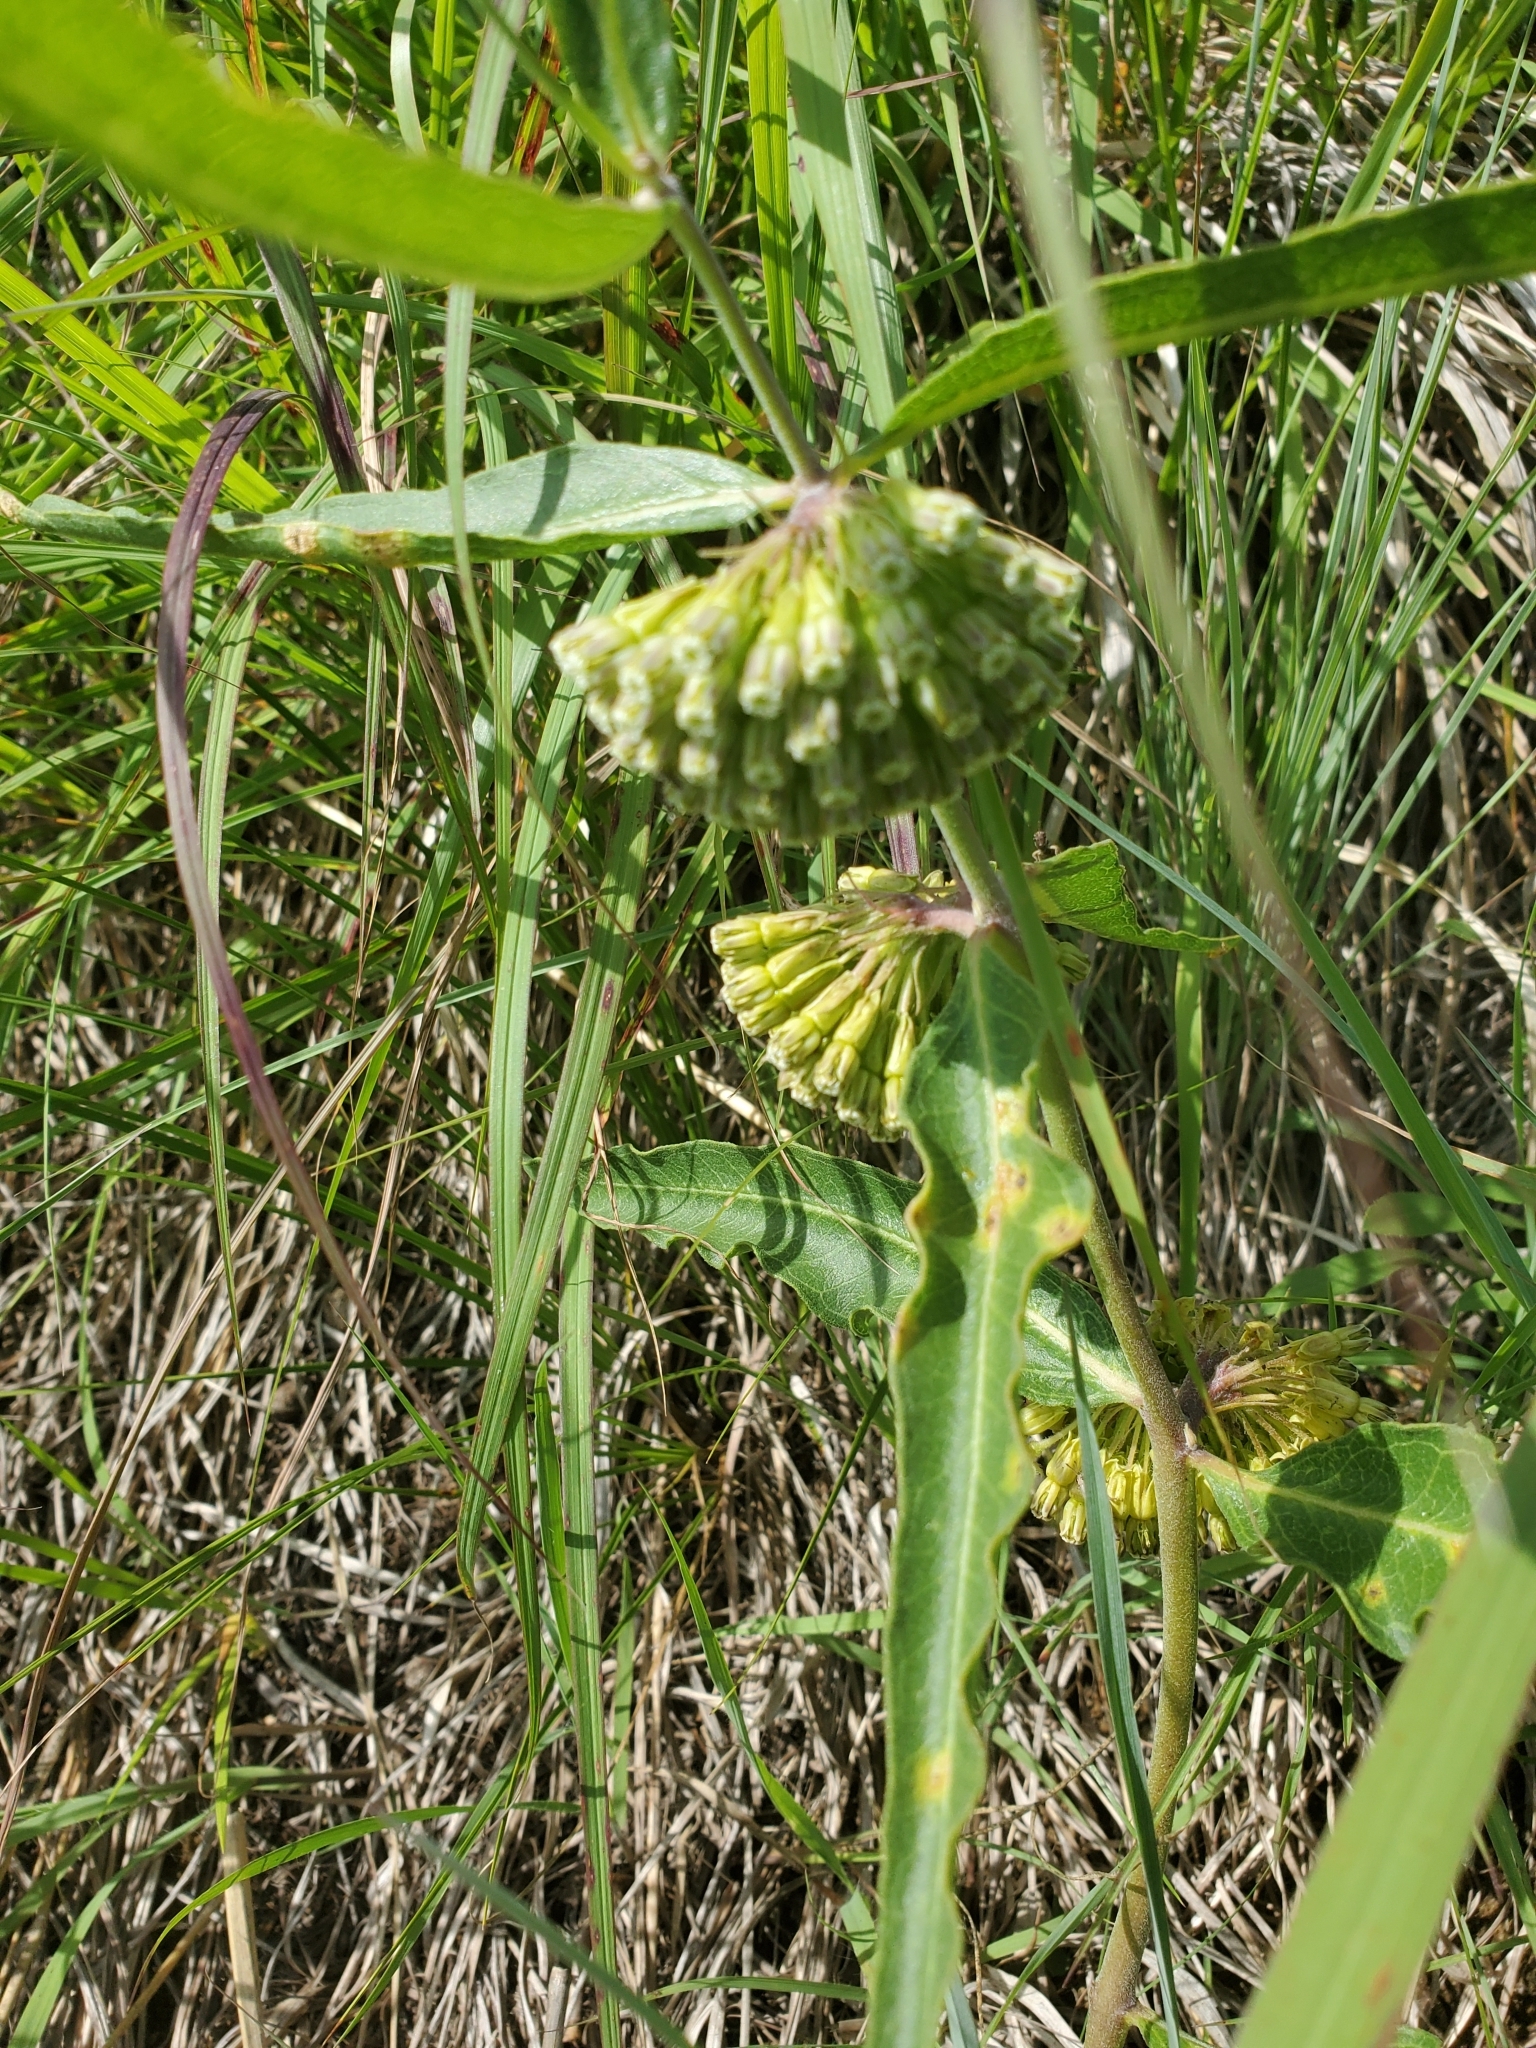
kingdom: Plantae
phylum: Tracheophyta
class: Magnoliopsida
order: Gentianales
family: Apocynaceae
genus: Asclepias
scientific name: Asclepias viridiflora
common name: Green comet milkweed
